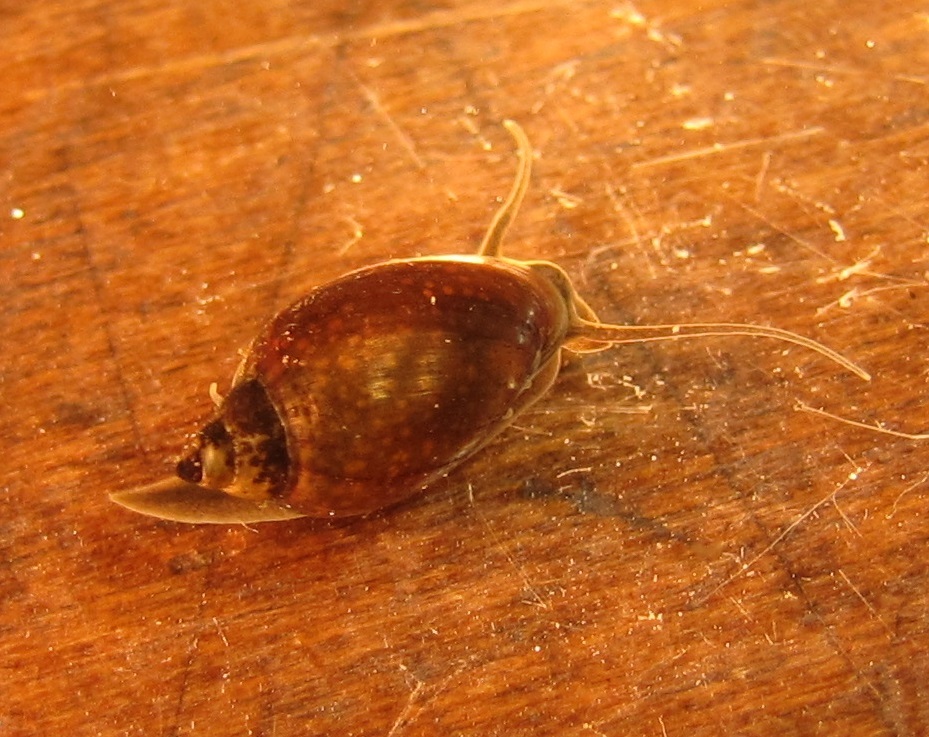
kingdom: Animalia
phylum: Mollusca
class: Gastropoda
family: Physidae
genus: Physella
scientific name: Physella acuta
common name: European physa
